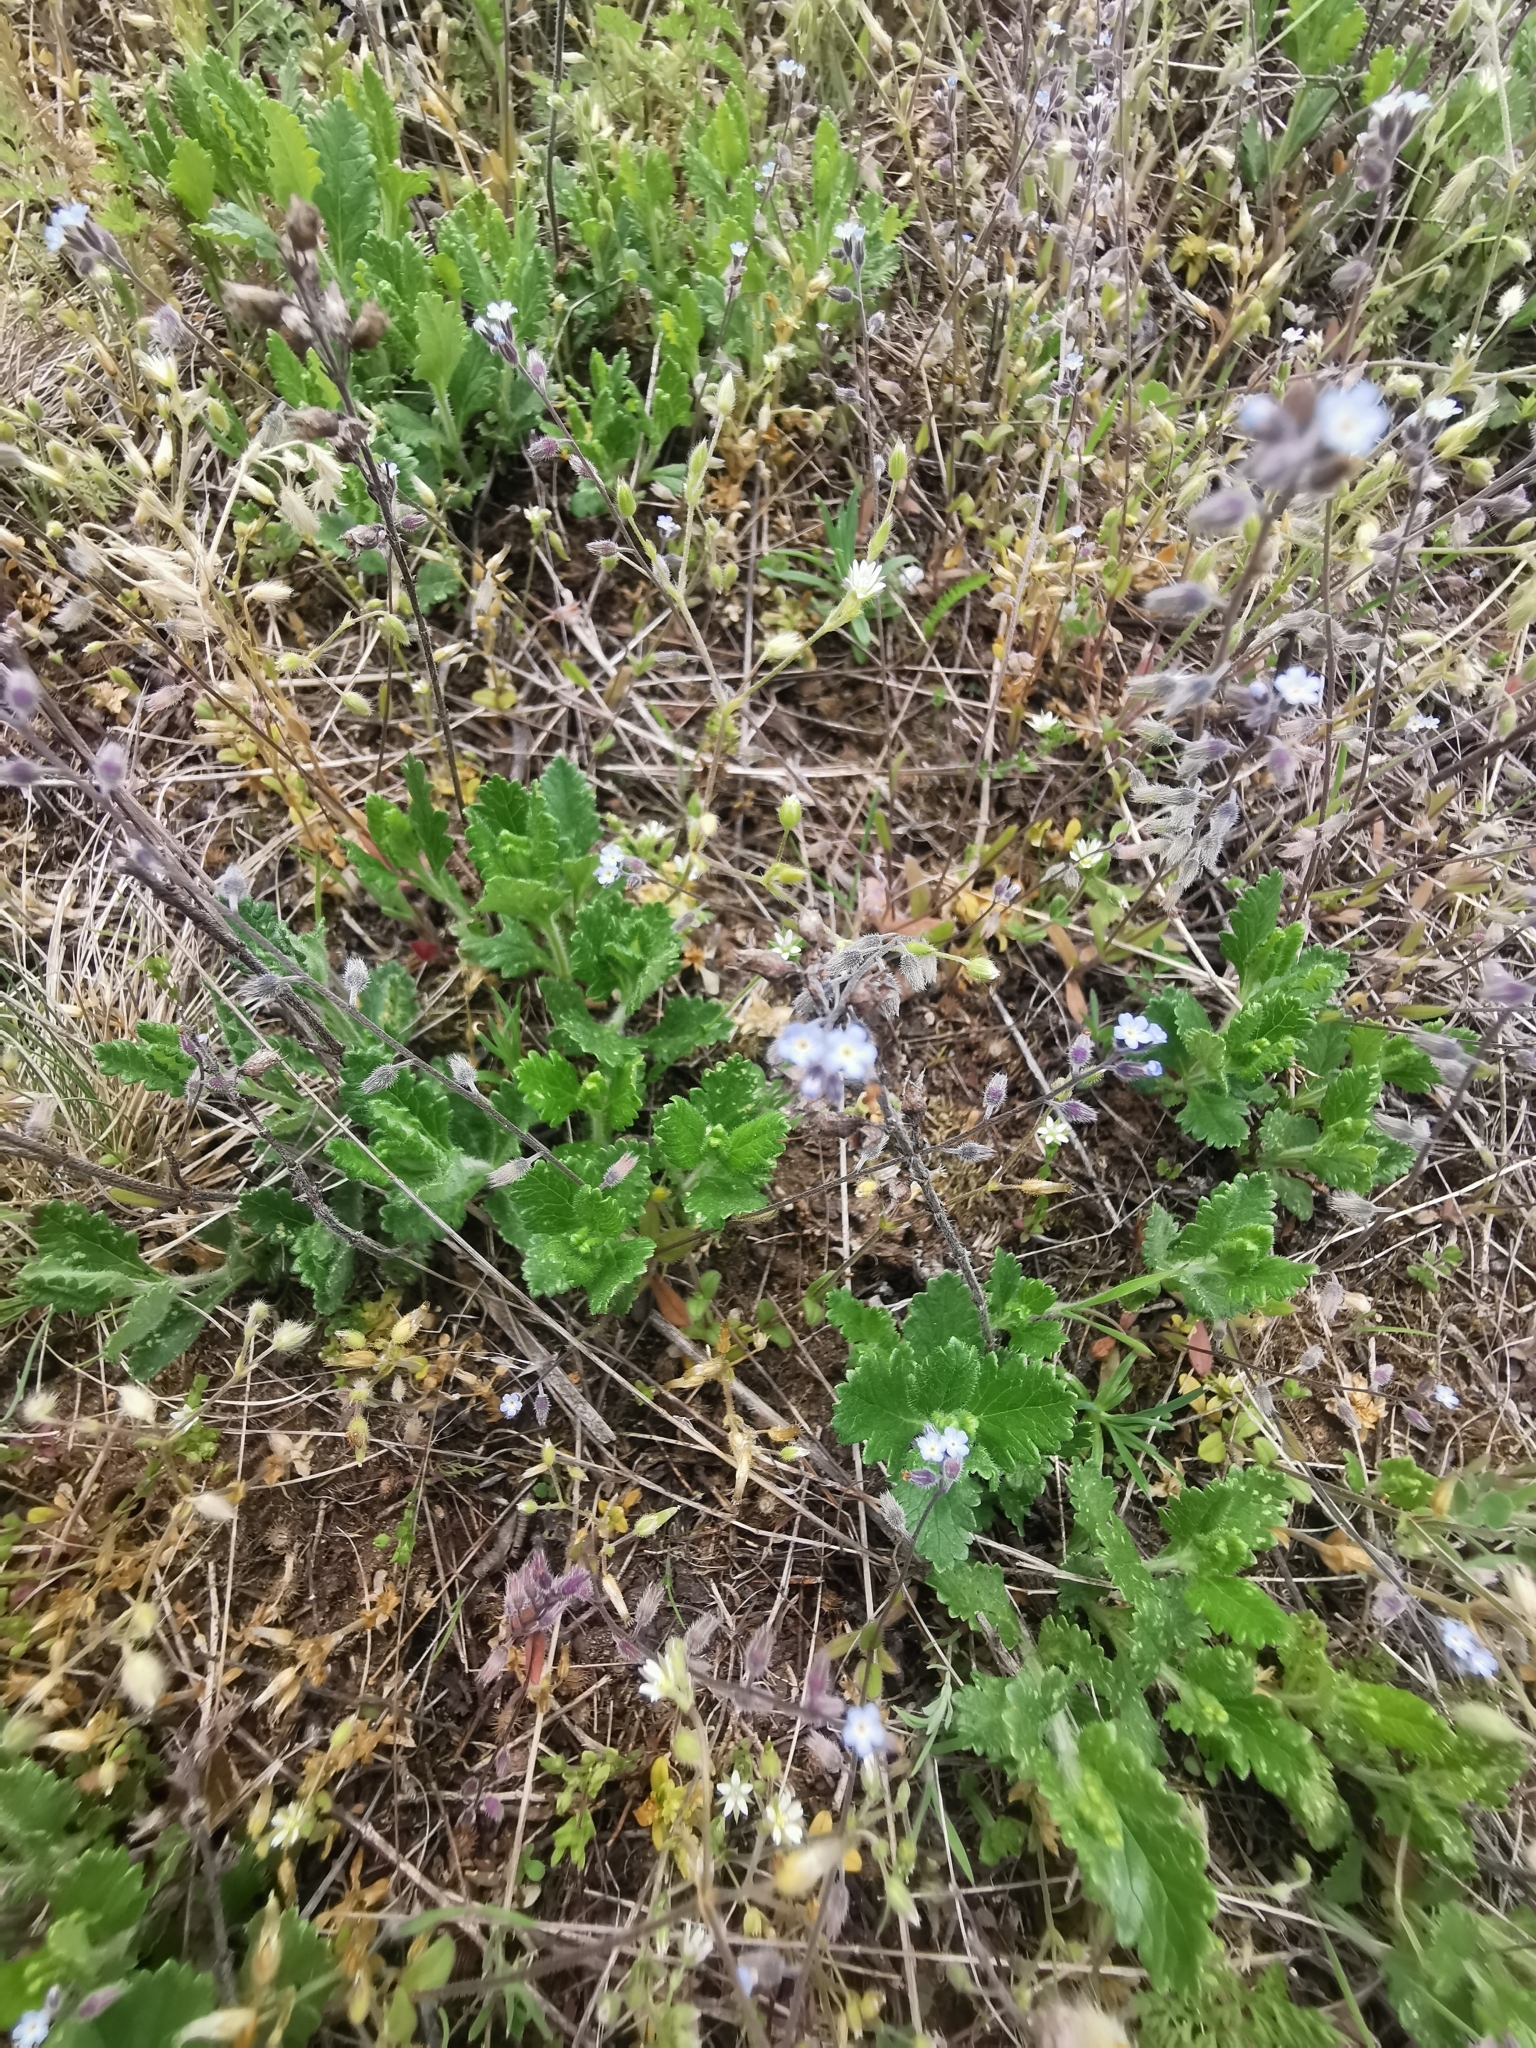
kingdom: Plantae
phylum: Tracheophyta
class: Magnoliopsida
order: Boraginales
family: Boraginaceae
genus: Myosotis
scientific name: Myosotis ramosissima
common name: Early forget-me-not
